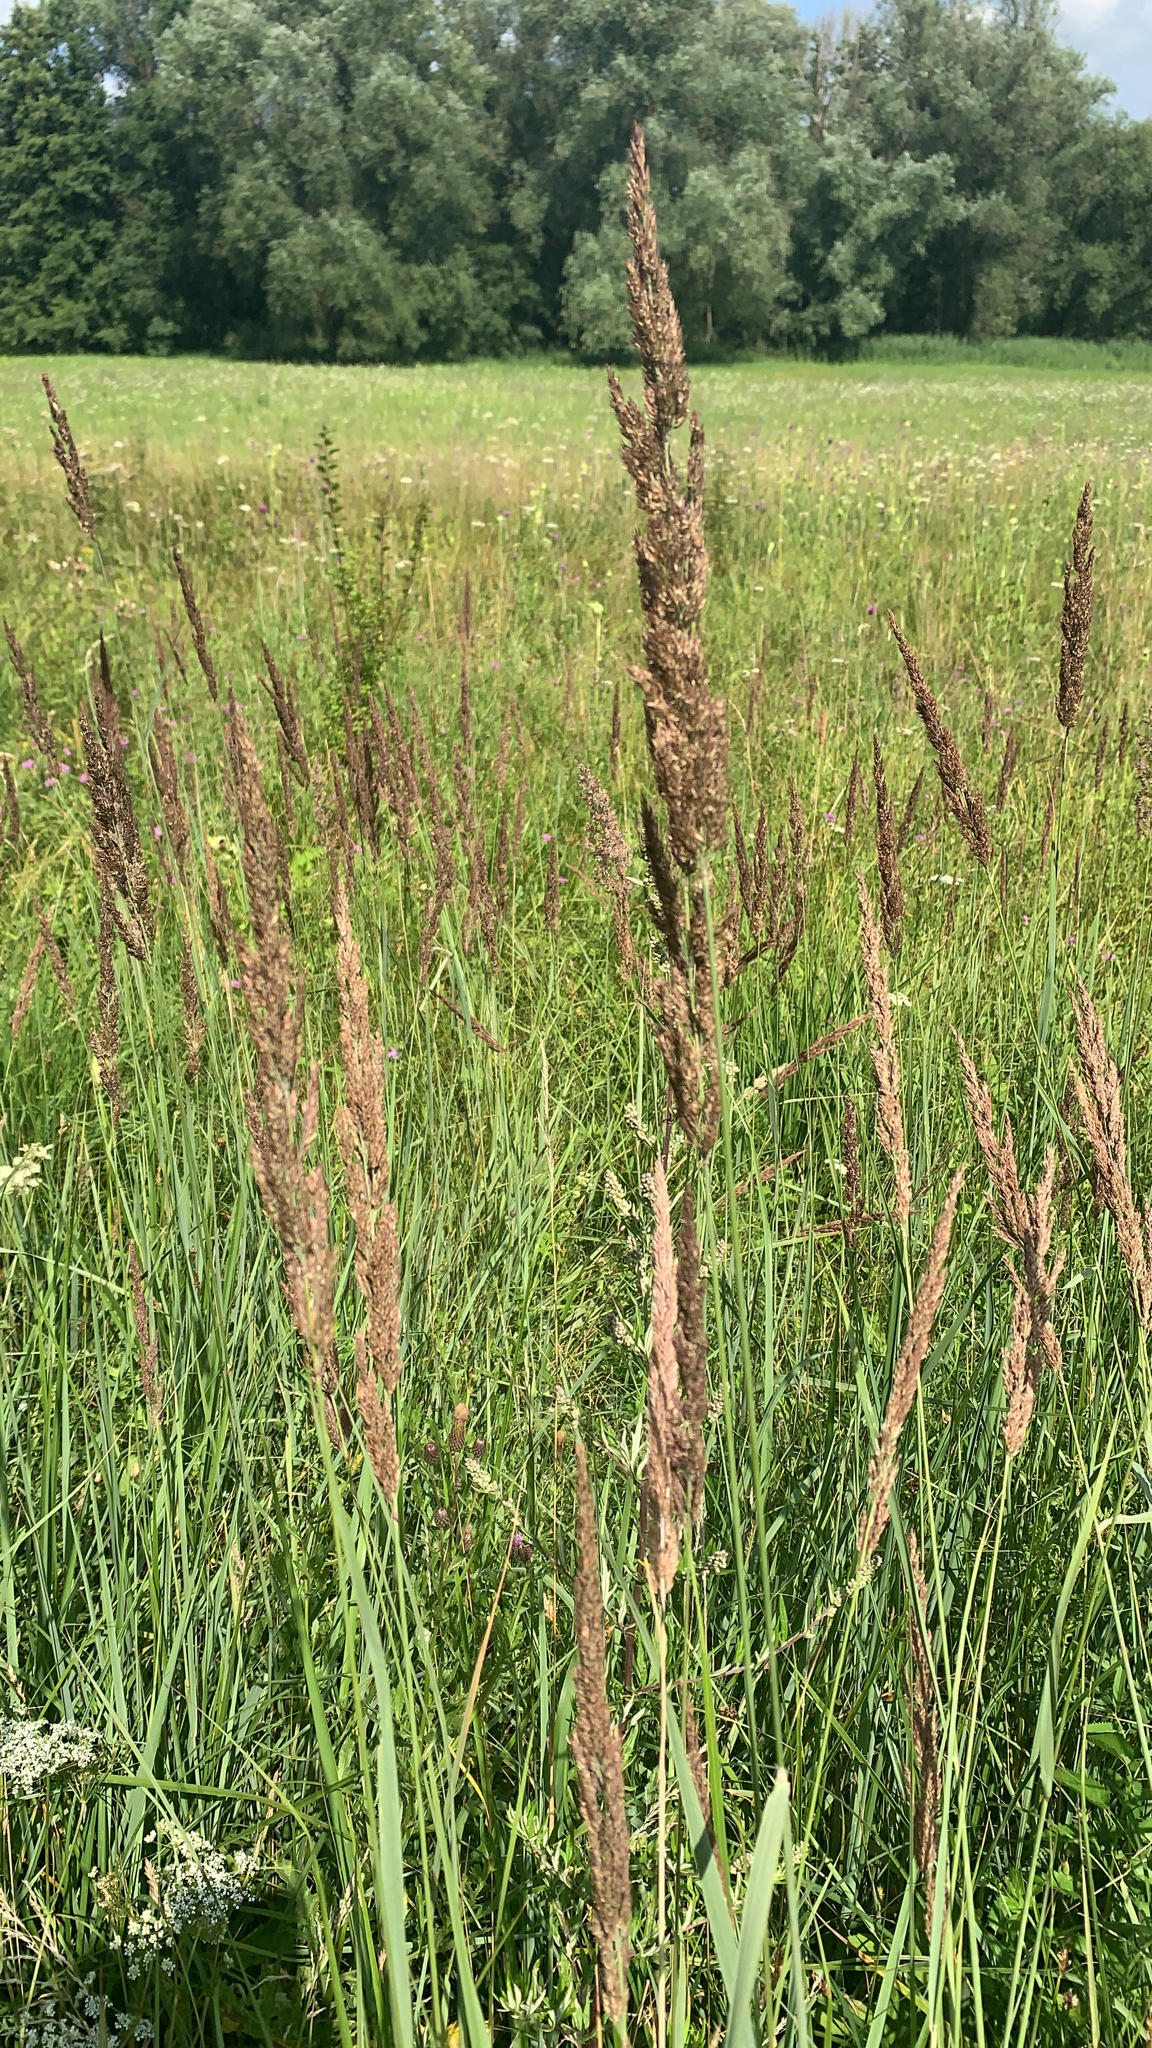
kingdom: Plantae
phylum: Tracheophyta
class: Liliopsida
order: Poales
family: Poaceae
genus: Calamagrostis
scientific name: Calamagrostis epigejos
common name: Wood small-reed
